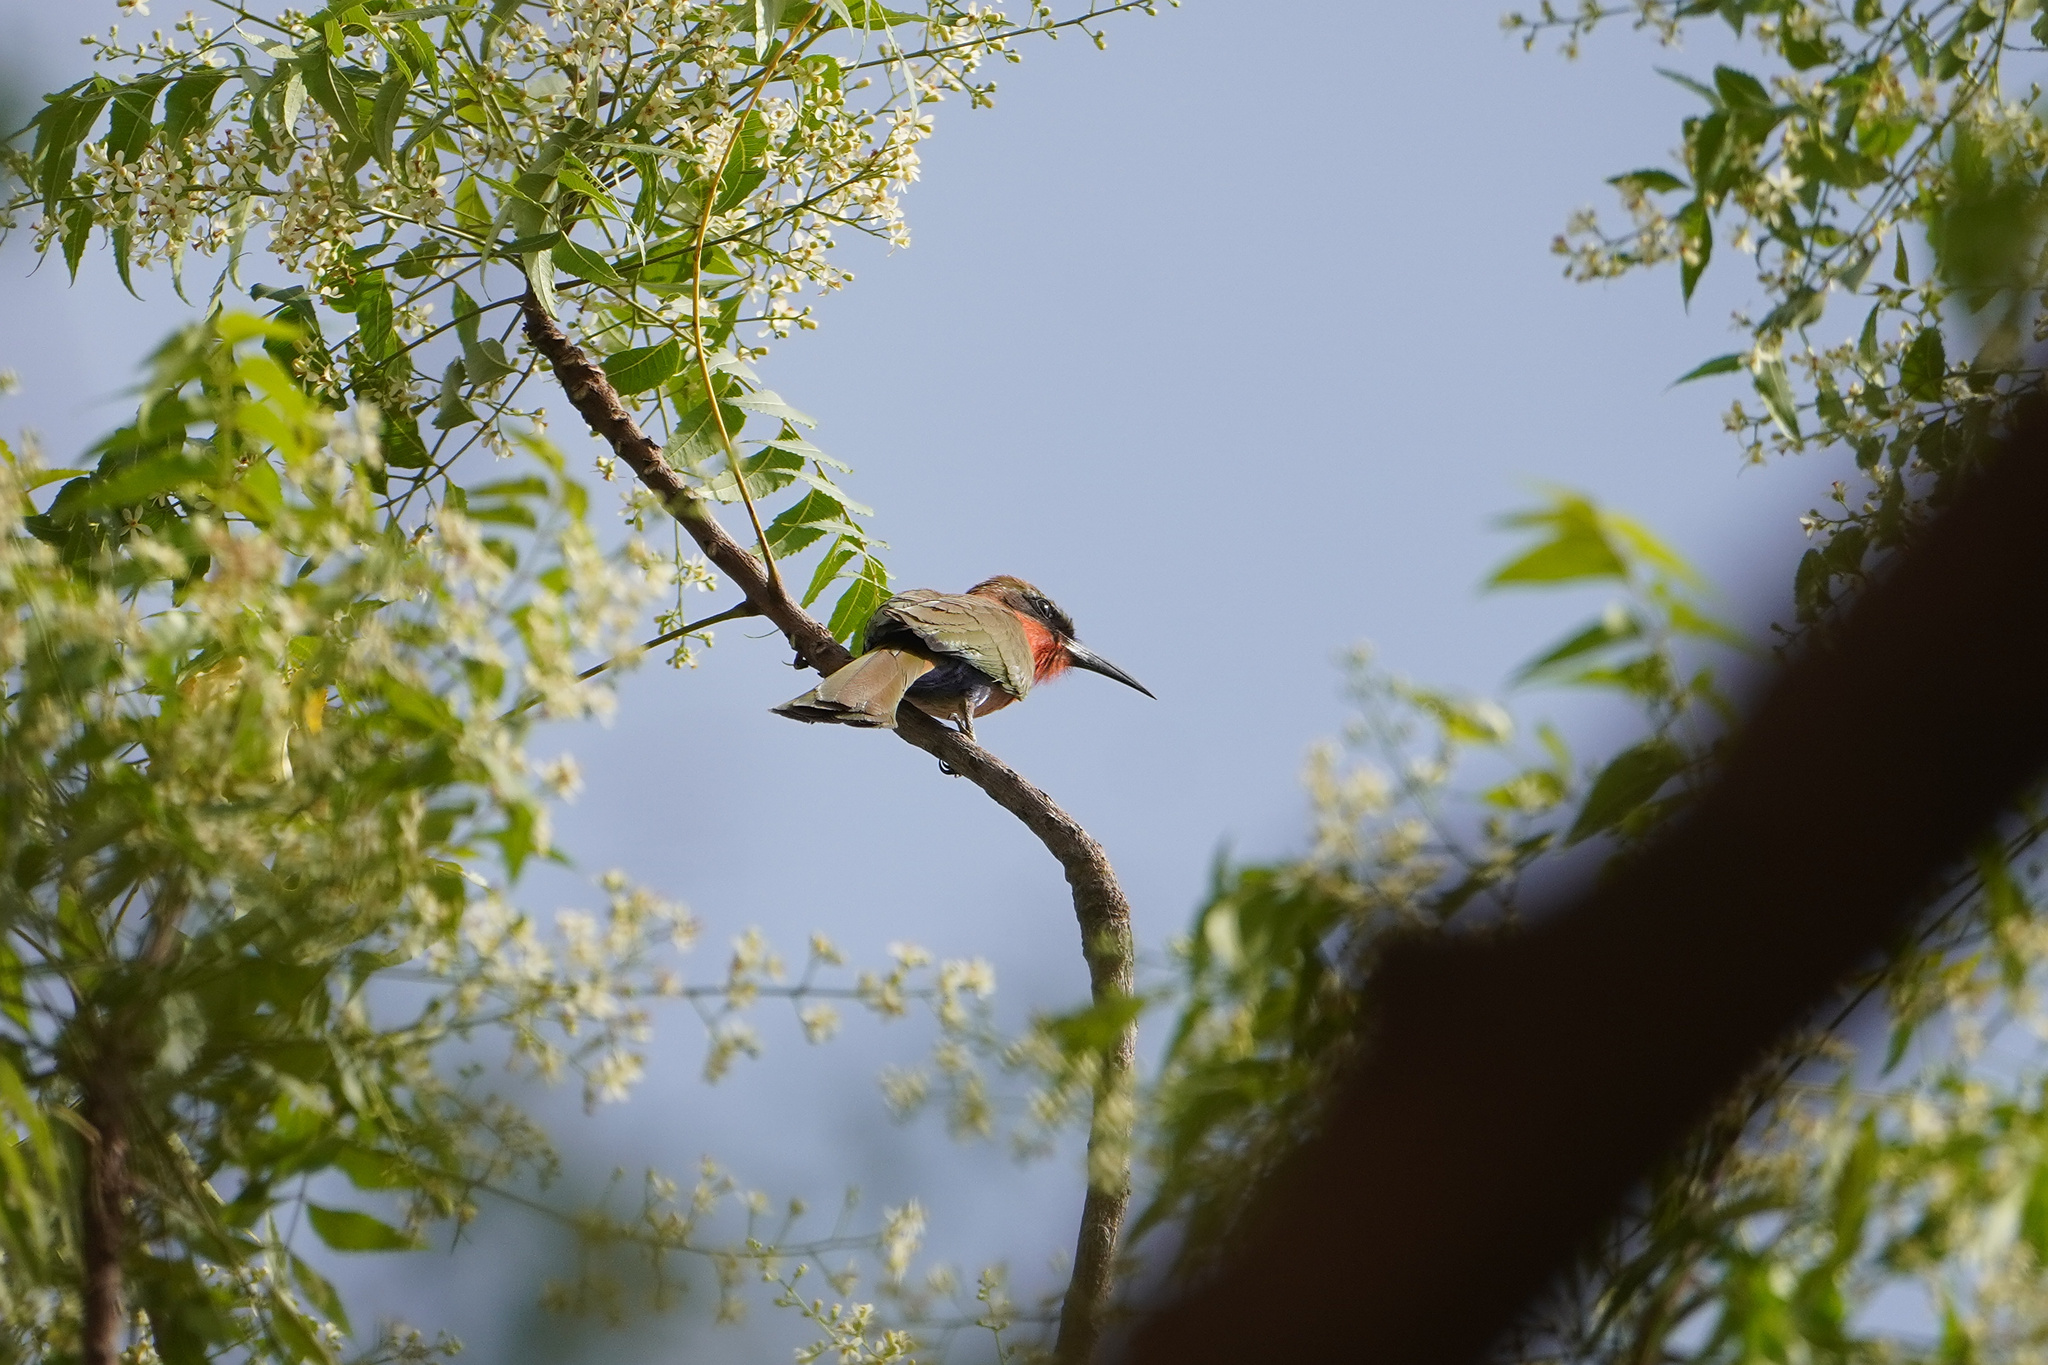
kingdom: Animalia
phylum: Chordata
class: Aves
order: Coraciiformes
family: Meropidae
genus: Merops
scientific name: Merops bulocki
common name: Red-throated bee-eater
